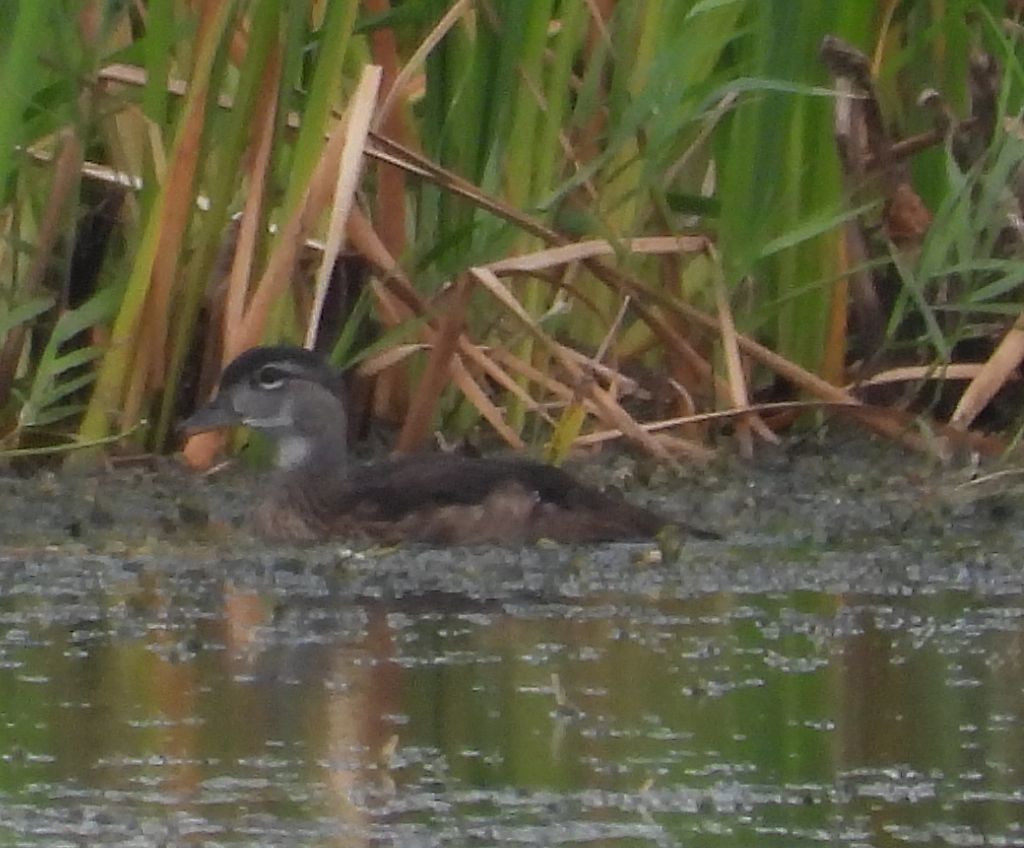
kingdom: Animalia
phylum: Chordata
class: Aves
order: Anseriformes
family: Anatidae
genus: Aix
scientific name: Aix sponsa
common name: Wood duck
